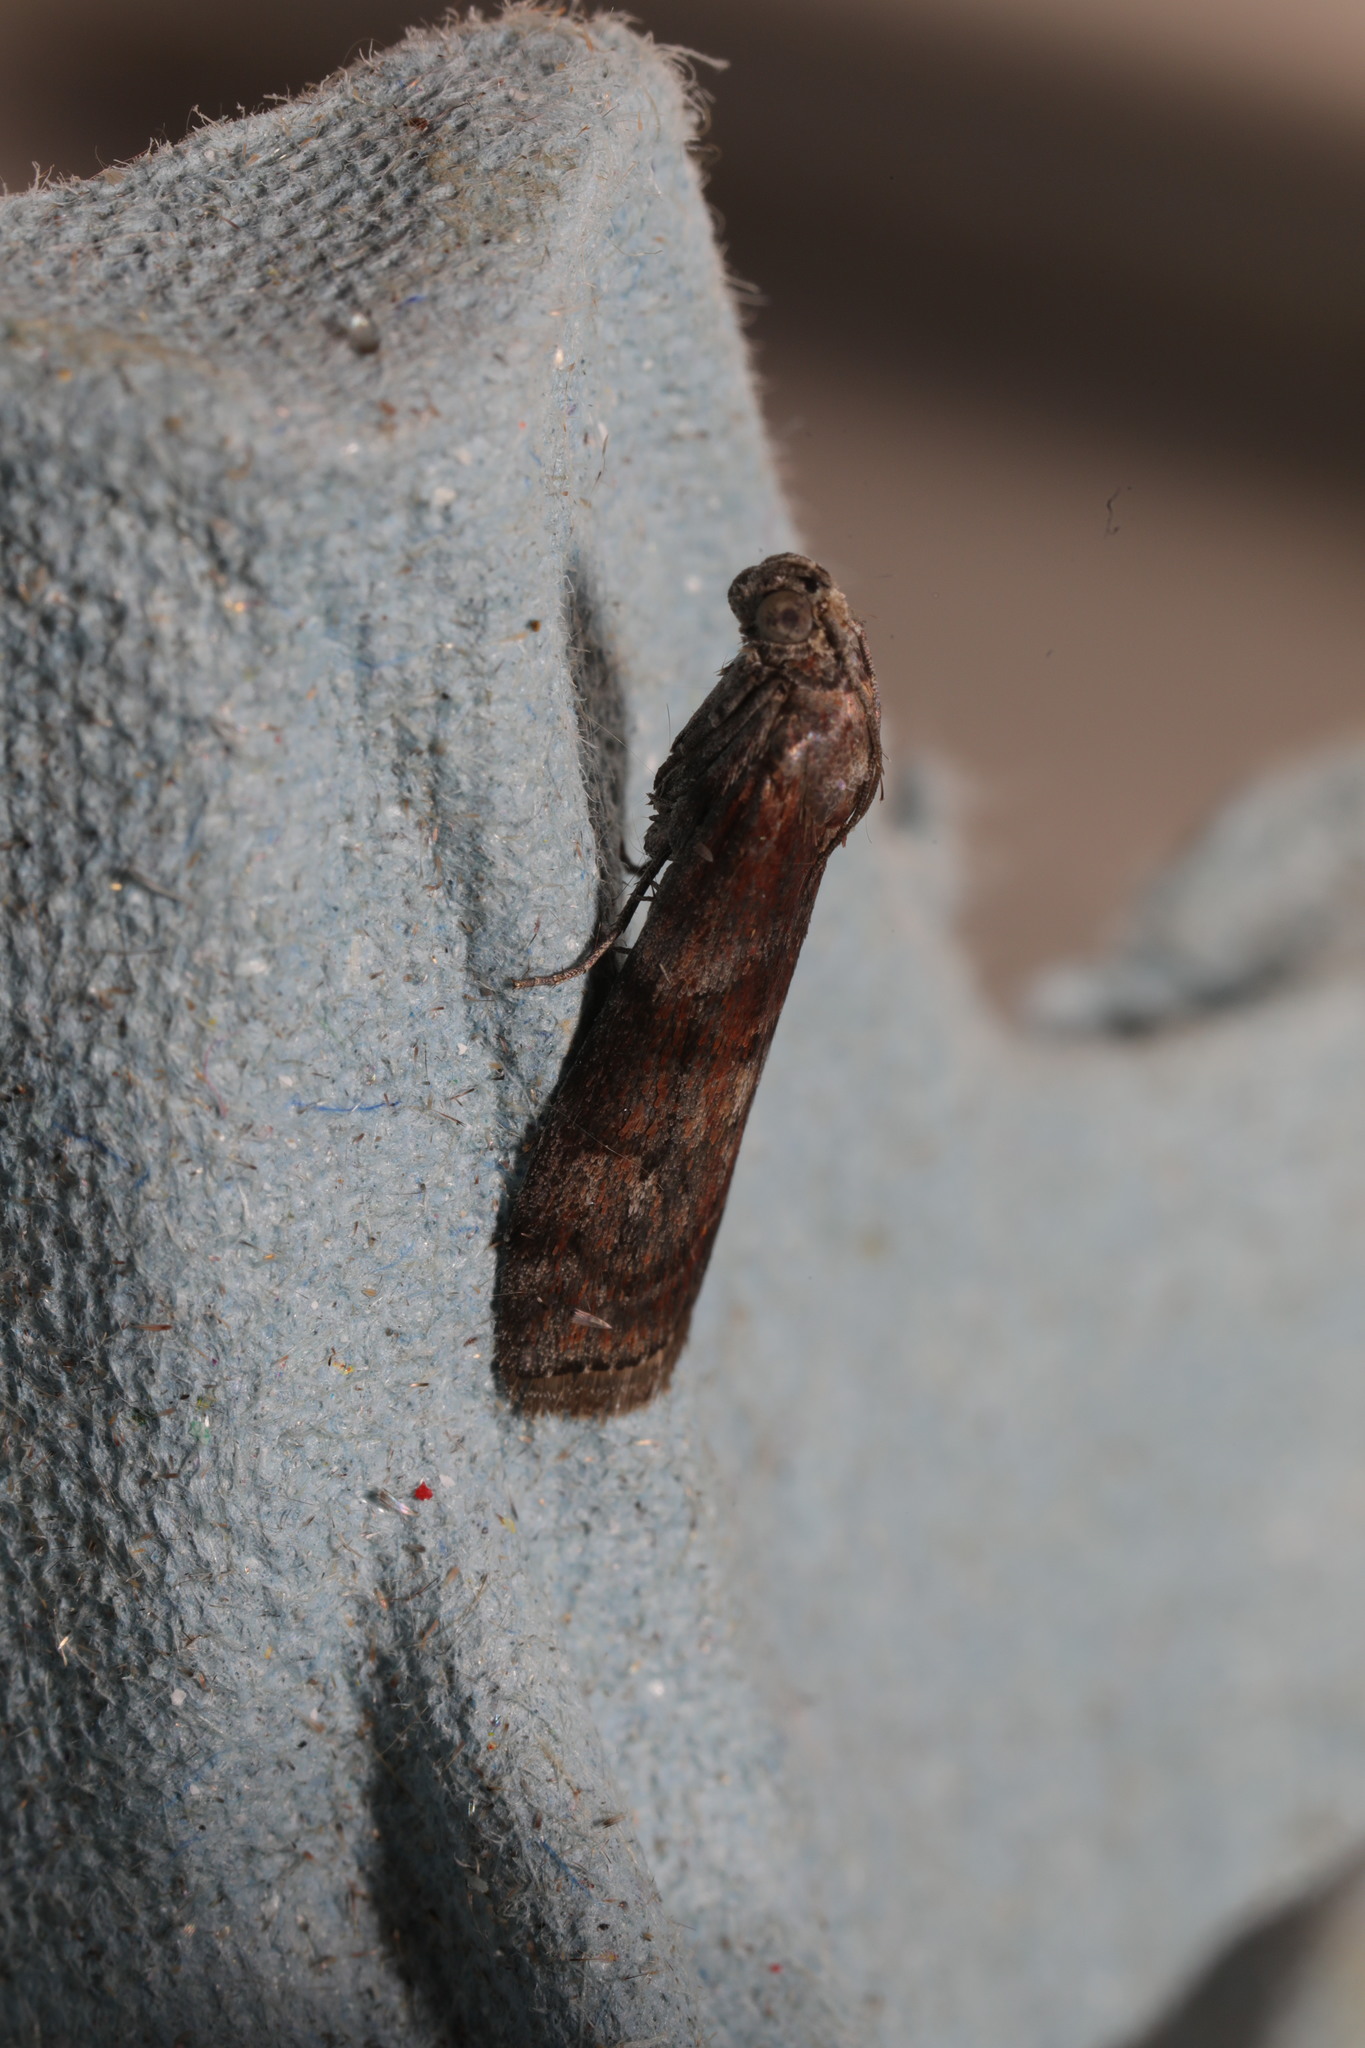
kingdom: Animalia
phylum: Arthropoda
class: Insecta
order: Lepidoptera
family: Pyralidae
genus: Phycita
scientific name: Phycita roborella
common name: Dotted oak knot-horn
